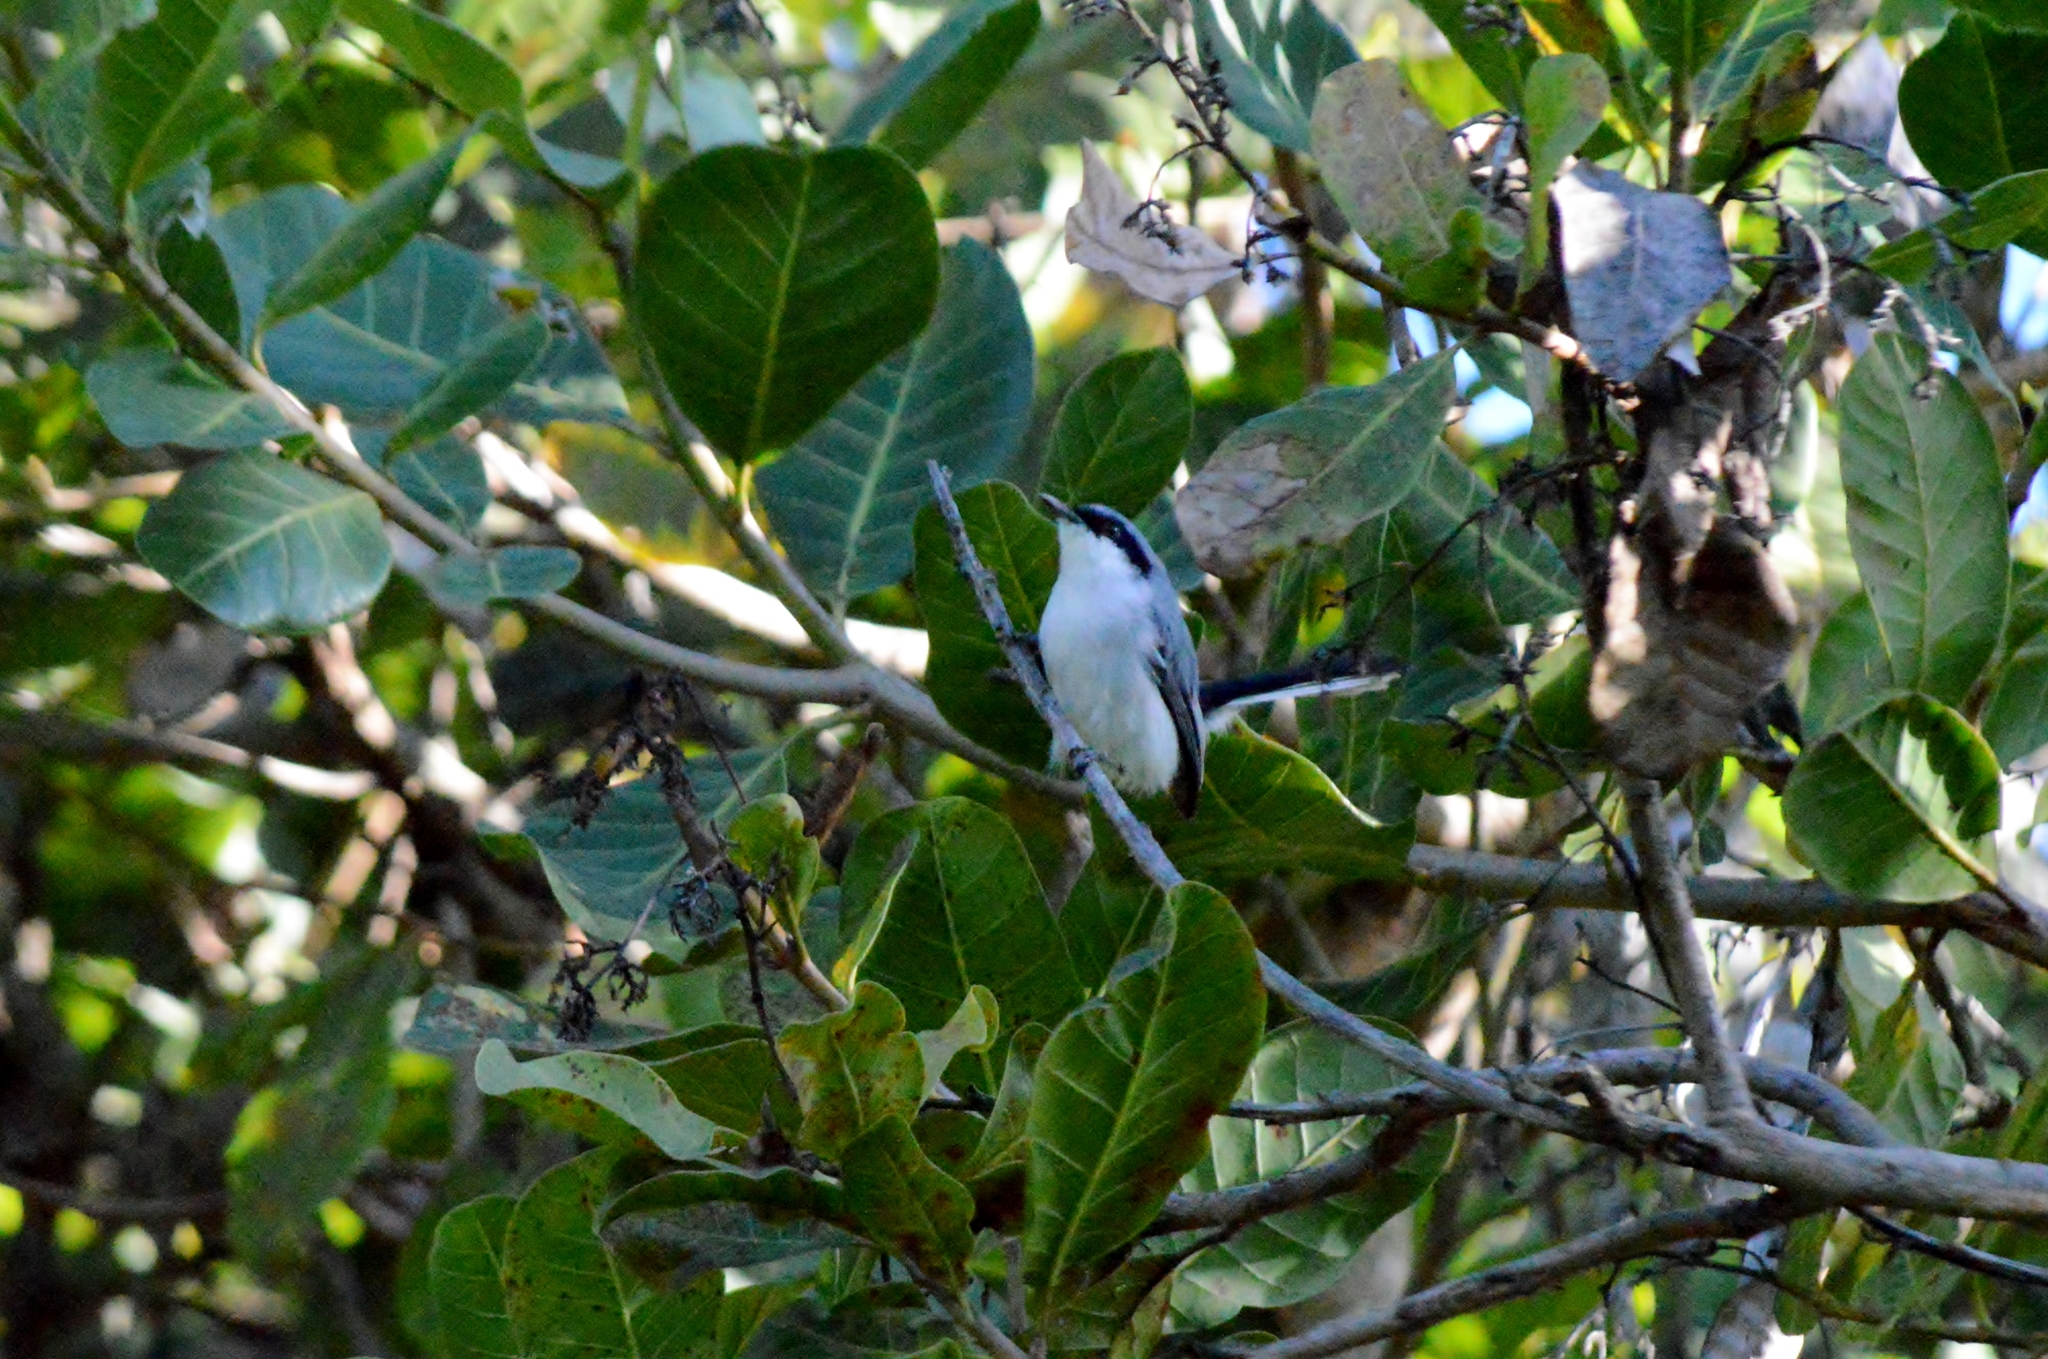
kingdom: Animalia
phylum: Chordata
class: Aves
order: Passeriformes
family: Polioptilidae
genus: Polioptila
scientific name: Polioptila dumicola
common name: Masked gnatcatcher
